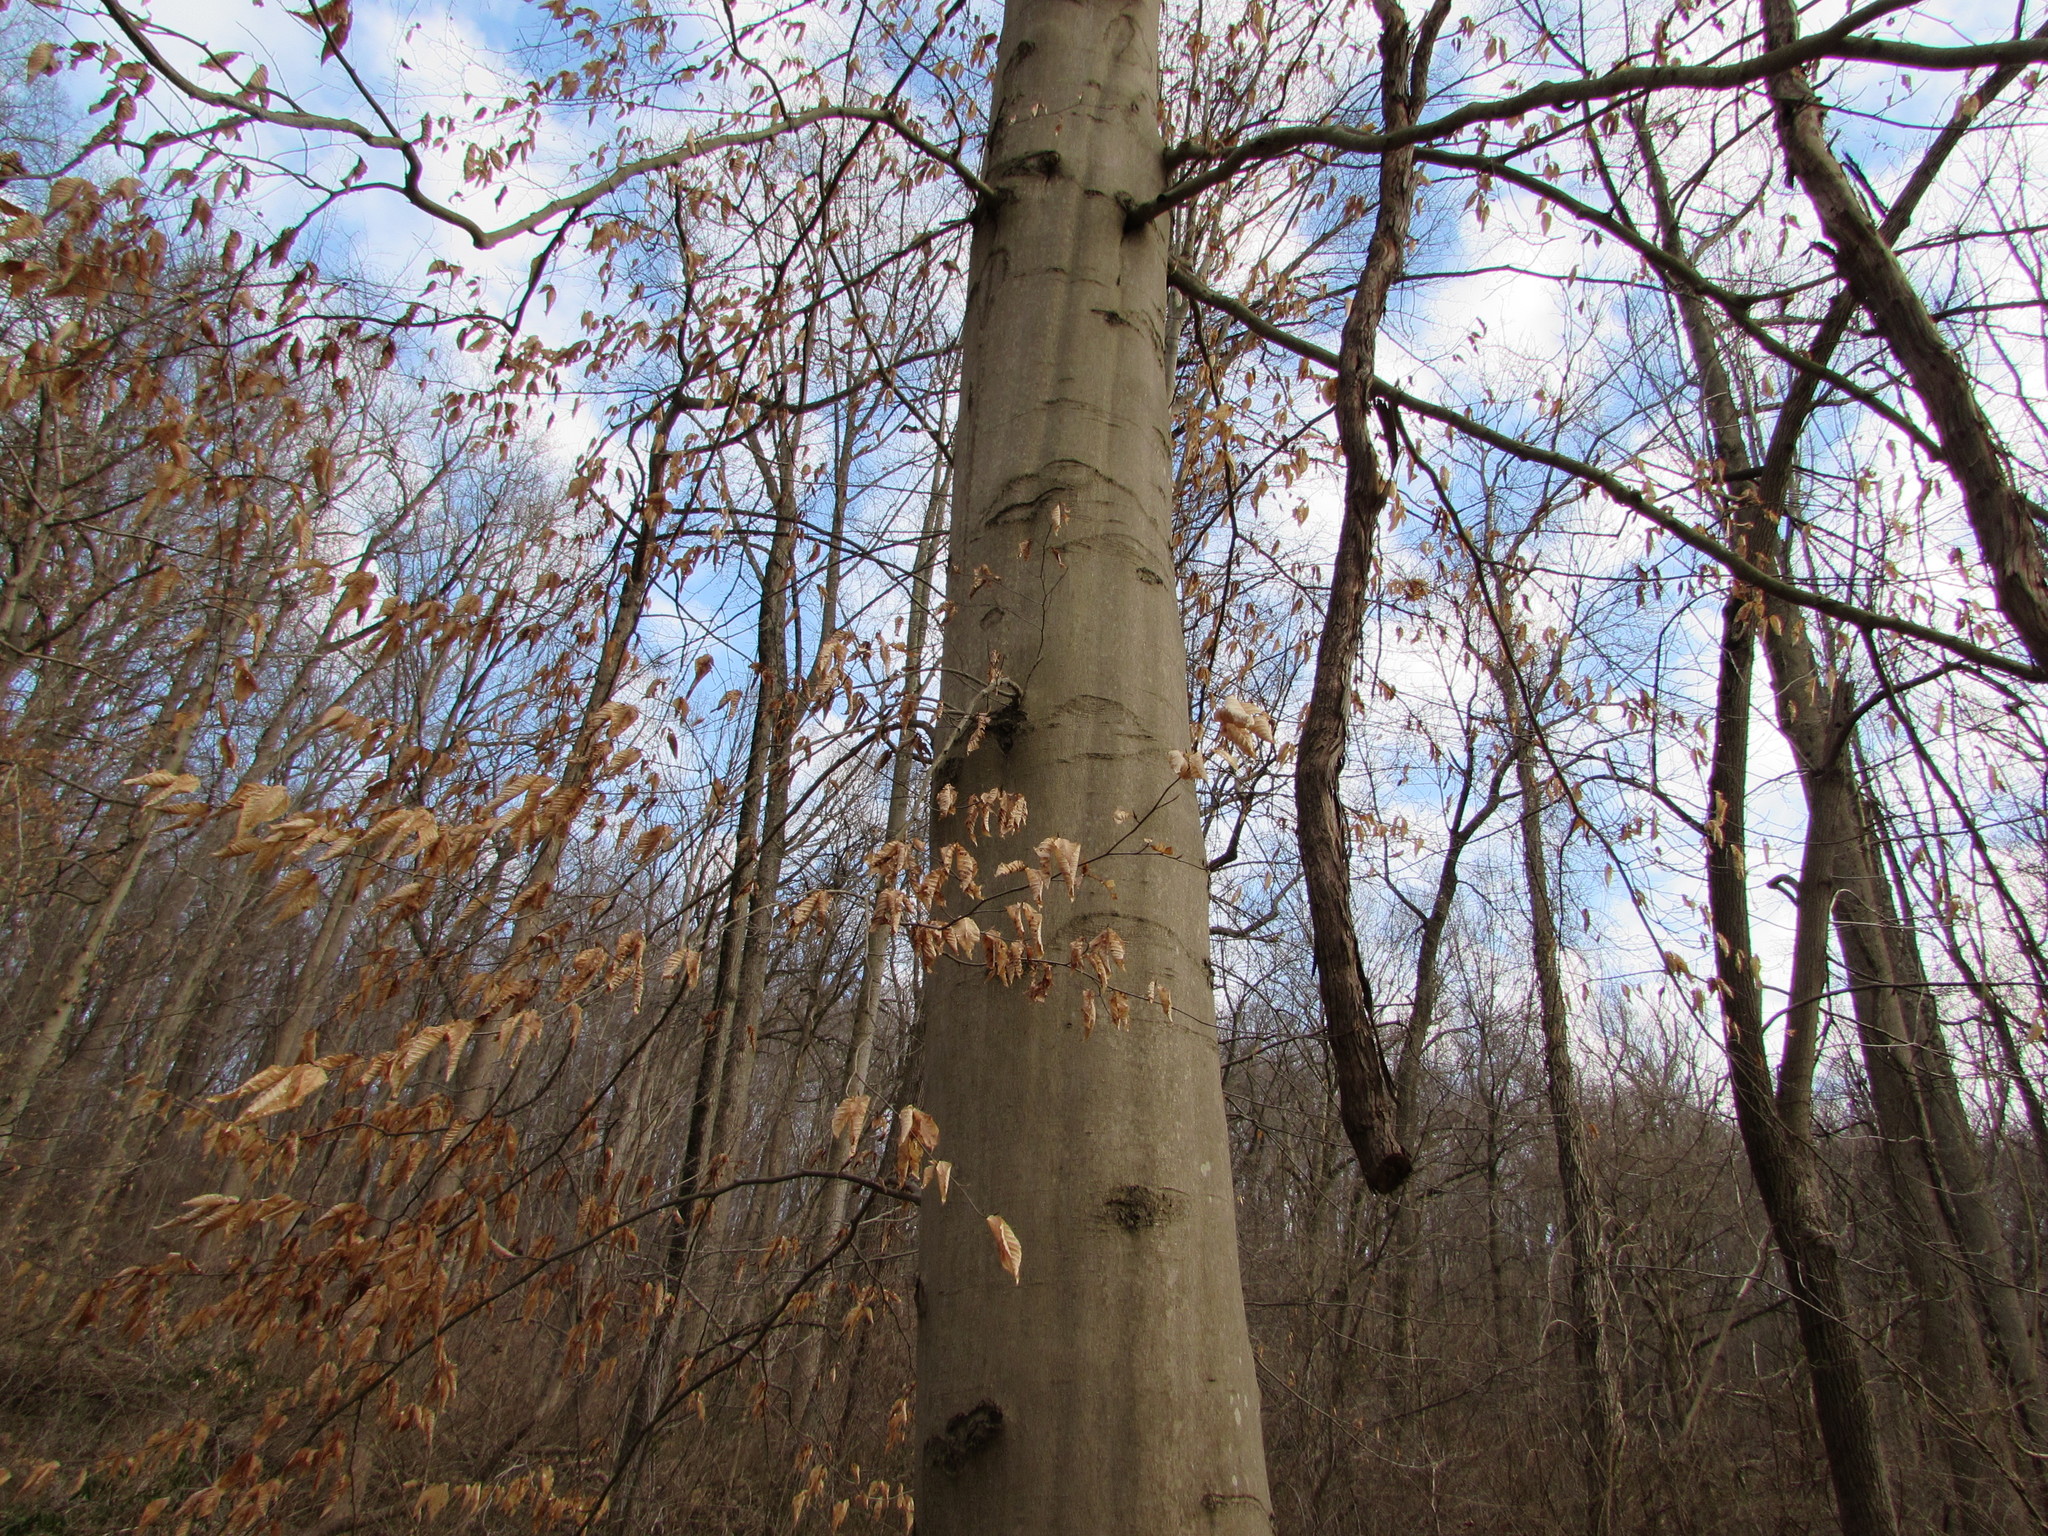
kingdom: Plantae
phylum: Tracheophyta
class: Magnoliopsida
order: Fagales
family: Fagaceae
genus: Fagus
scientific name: Fagus grandifolia
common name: American beech
